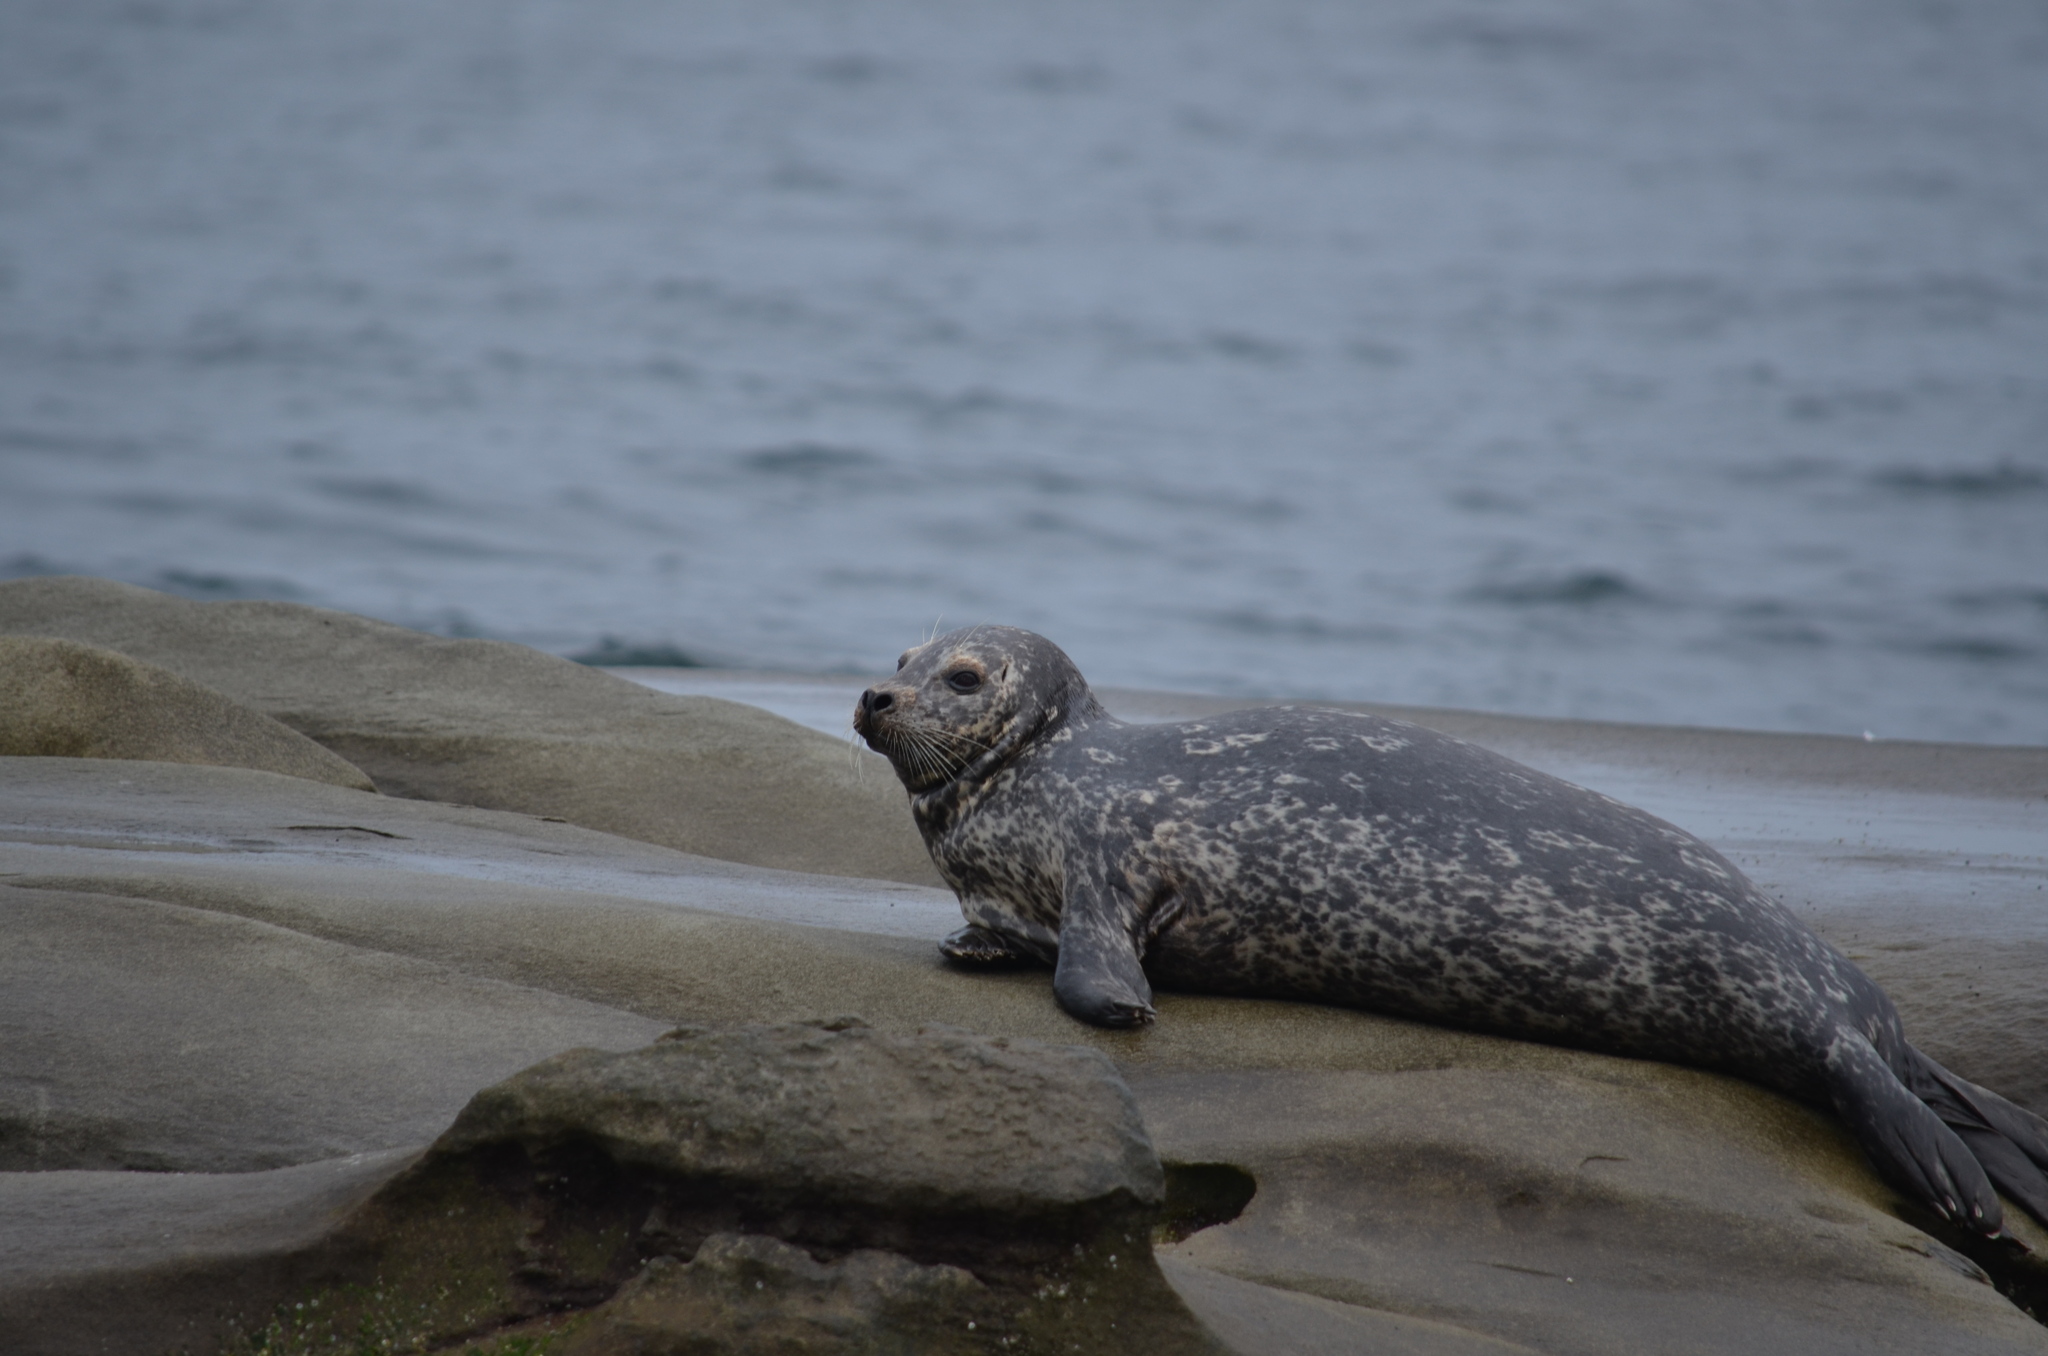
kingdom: Animalia
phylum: Chordata
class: Mammalia
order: Carnivora
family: Phocidae
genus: Phoca
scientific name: Phoca vitulina
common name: Harbor seal
